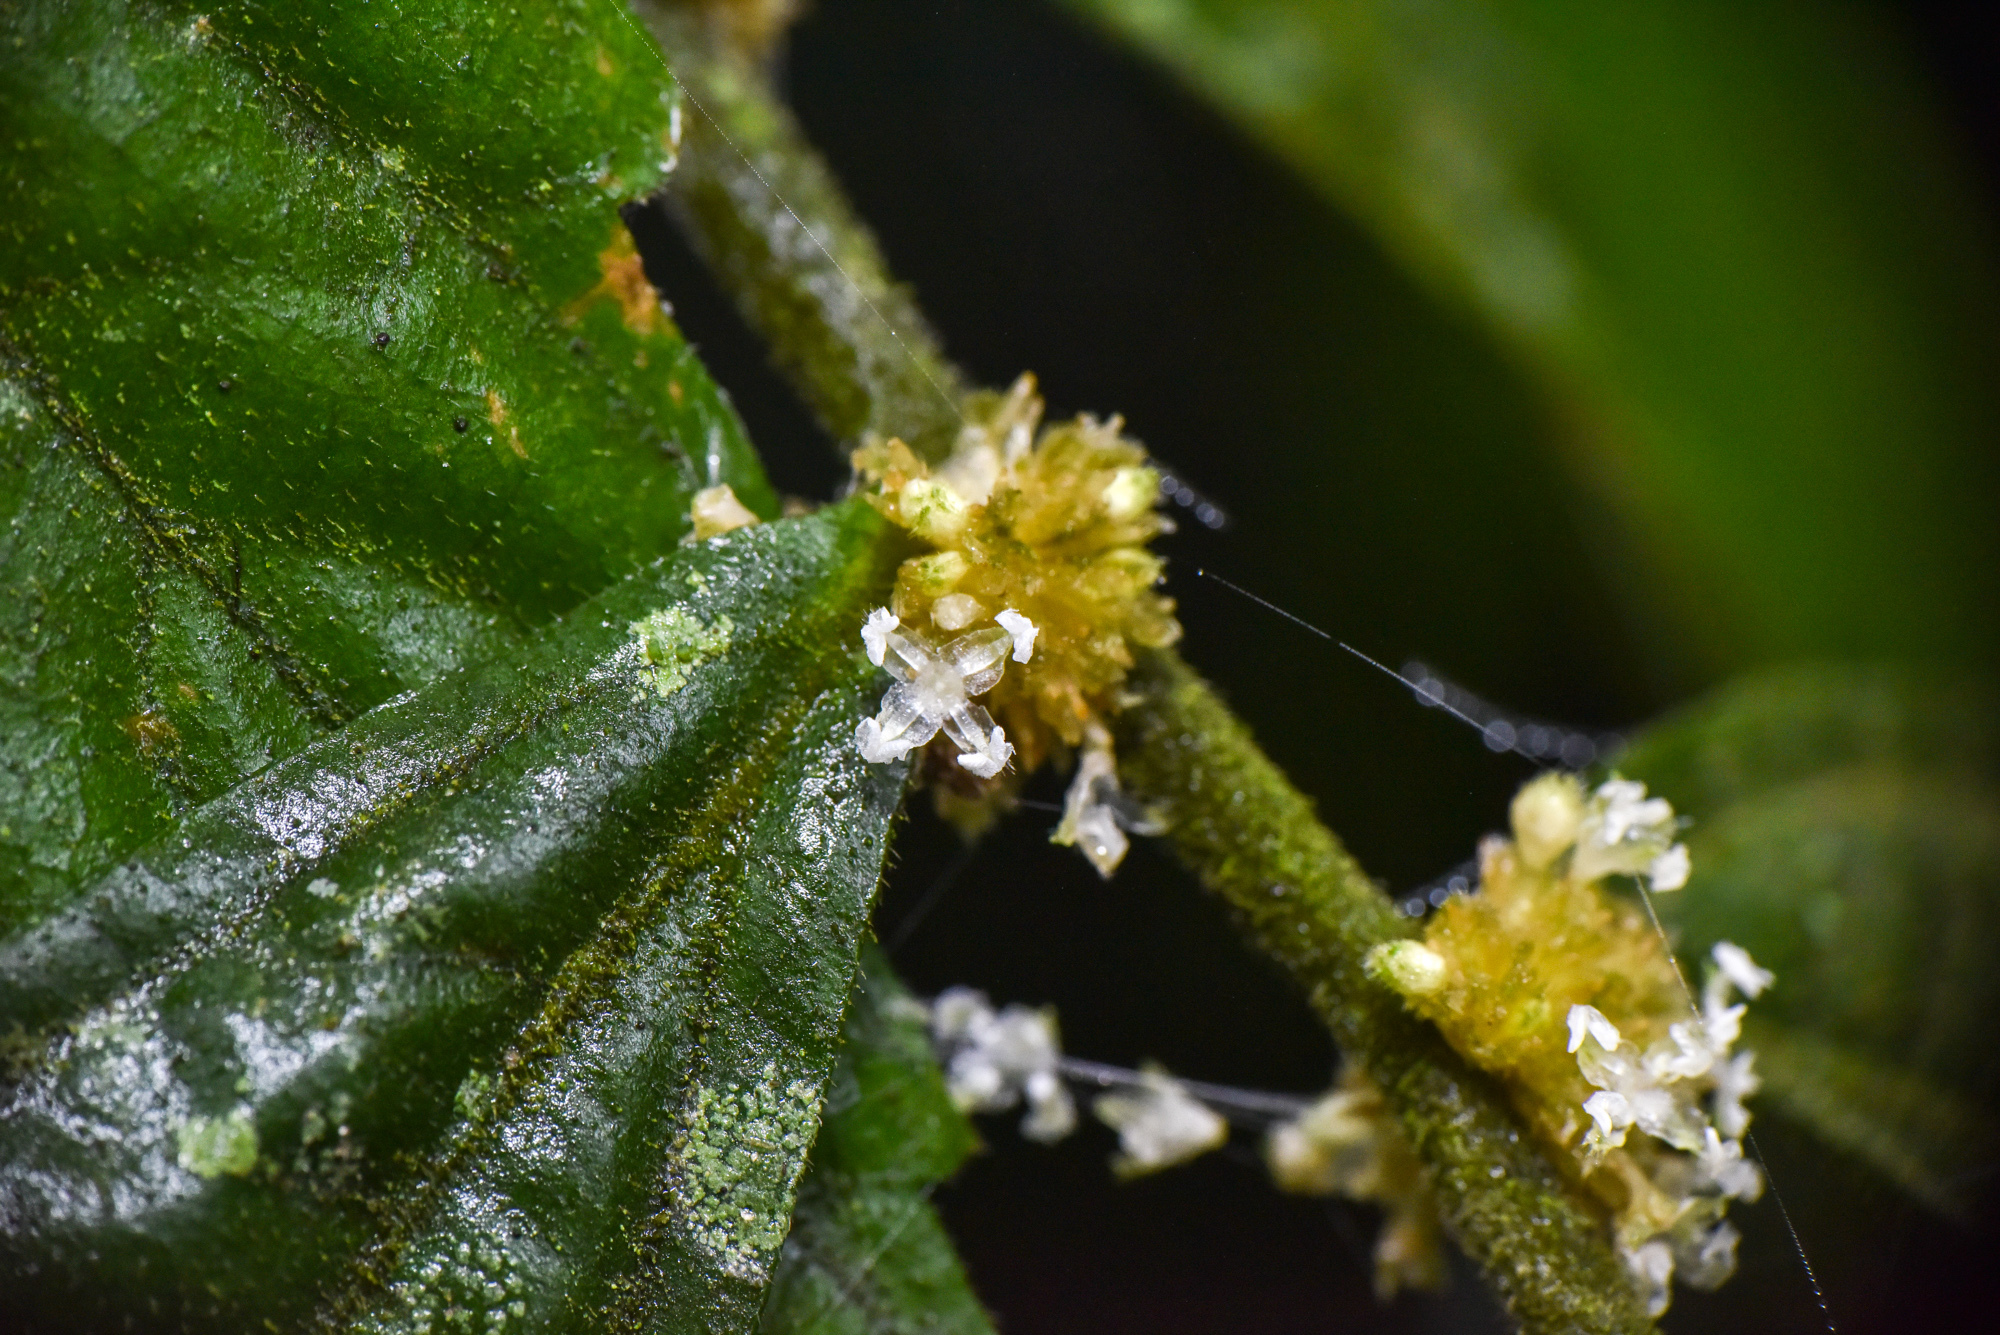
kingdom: Plantae
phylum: Tracheophyta
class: Magnoliopsida
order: Rosales
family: Urticaceae
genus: Elatostema
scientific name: Elatostema lineolatum
